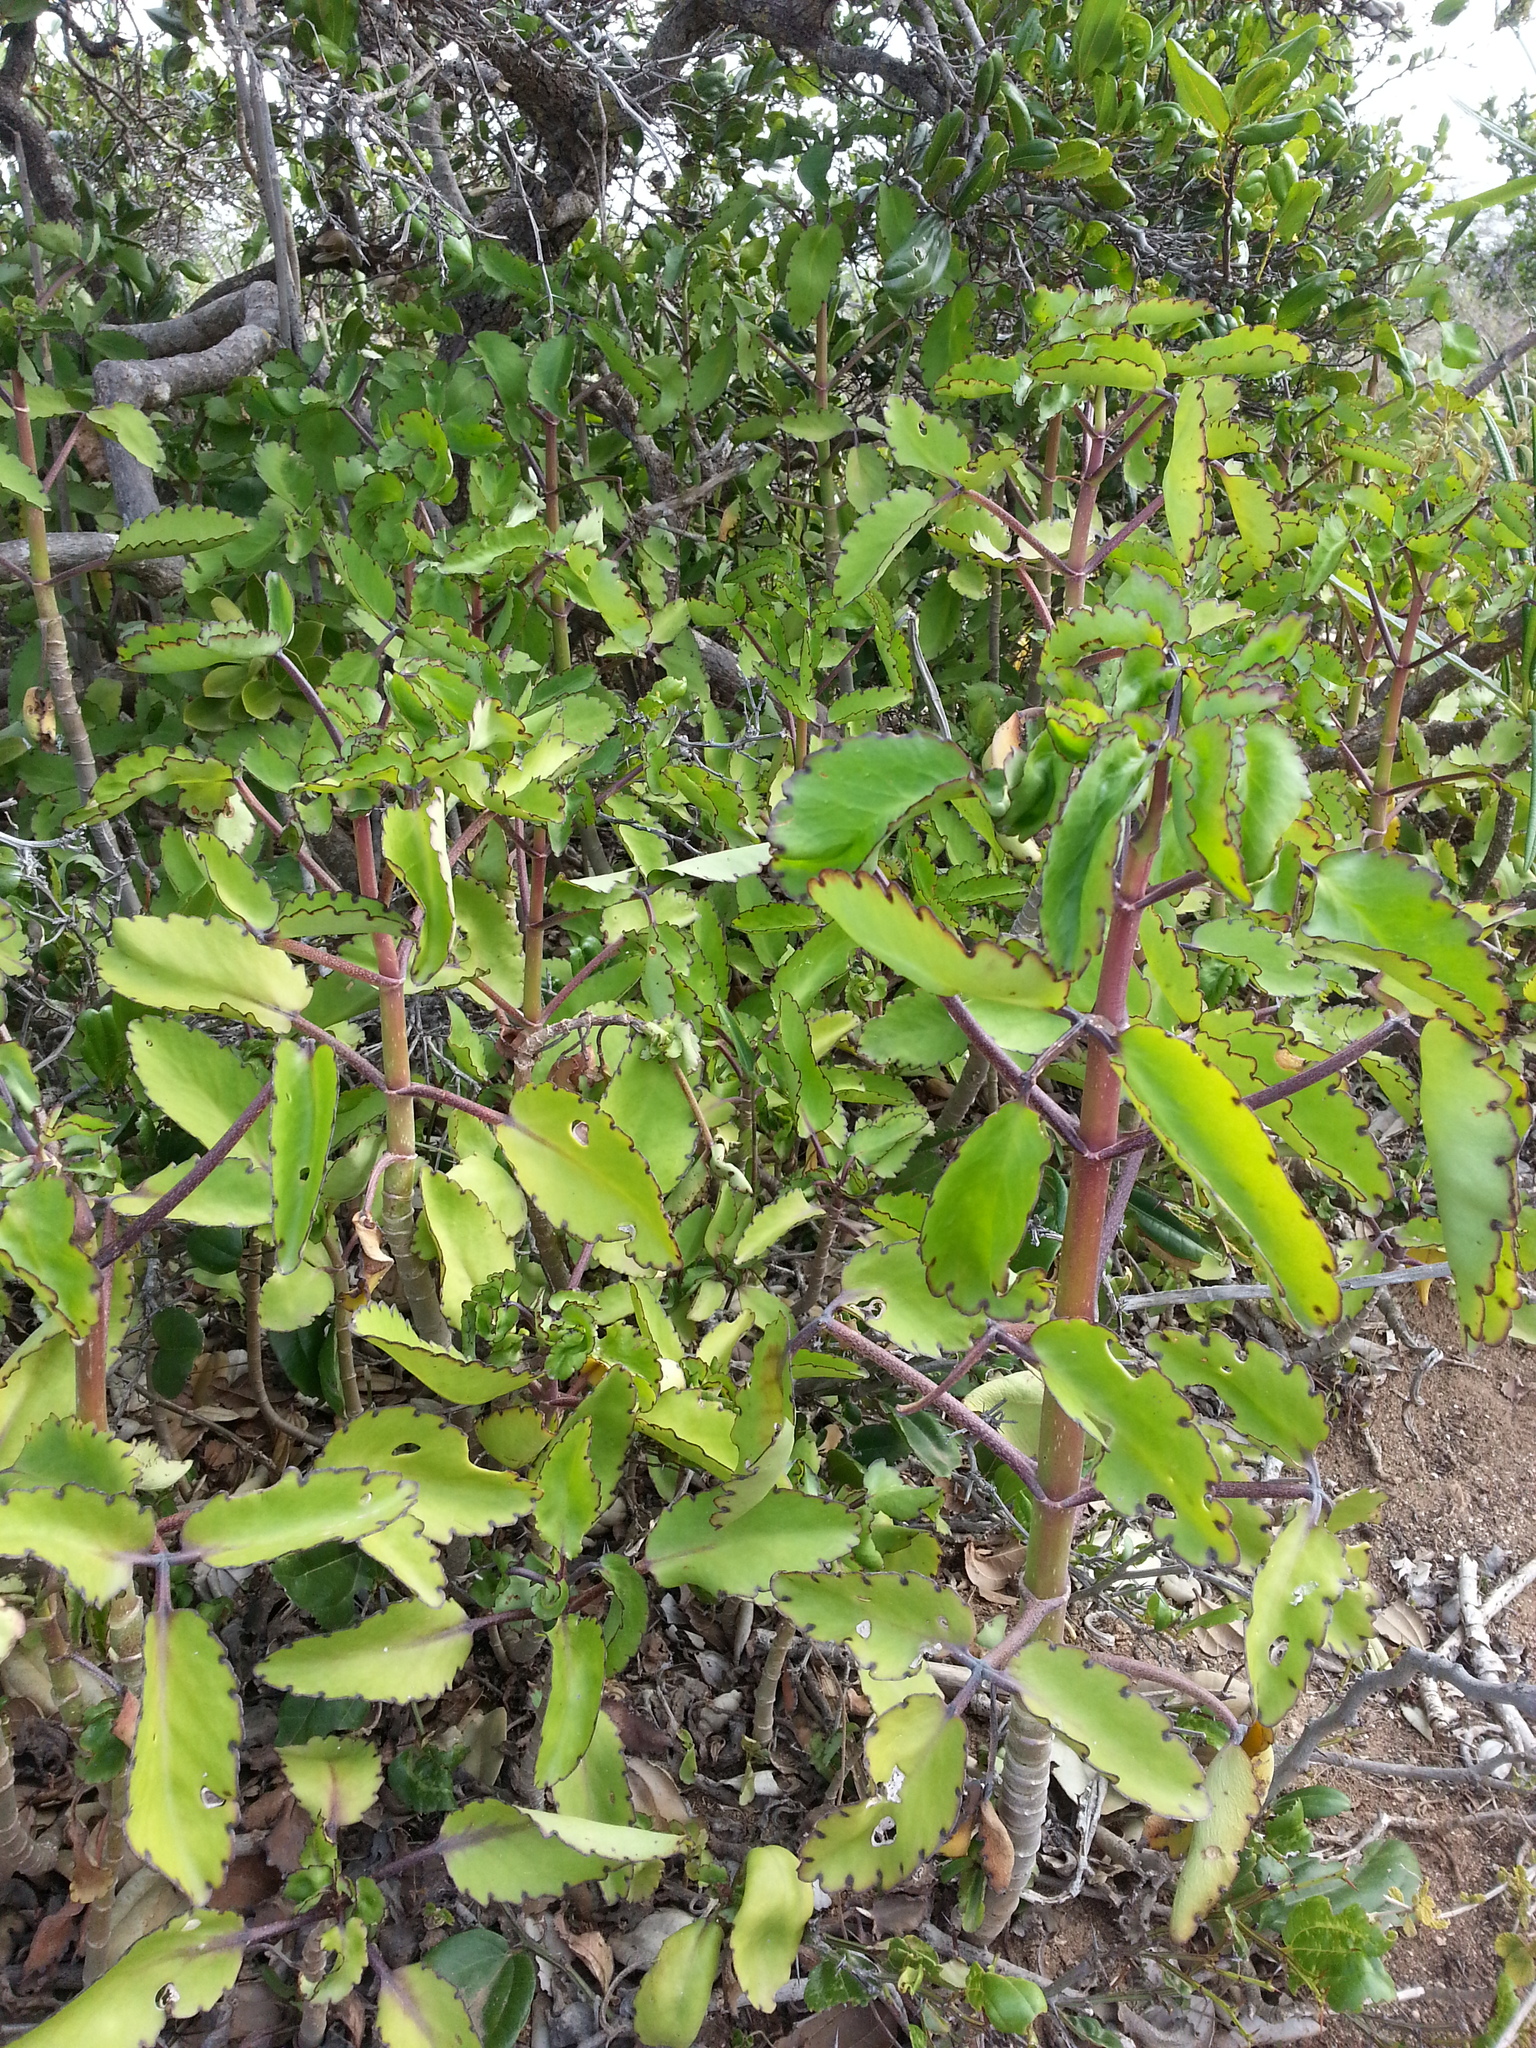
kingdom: Plantae
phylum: Tracheophyta
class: Magnoliopsida
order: Saxifragales
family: Crassulaceae
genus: Kalanchoe
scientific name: Kalanchoe pinnata
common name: Cathedral bells
